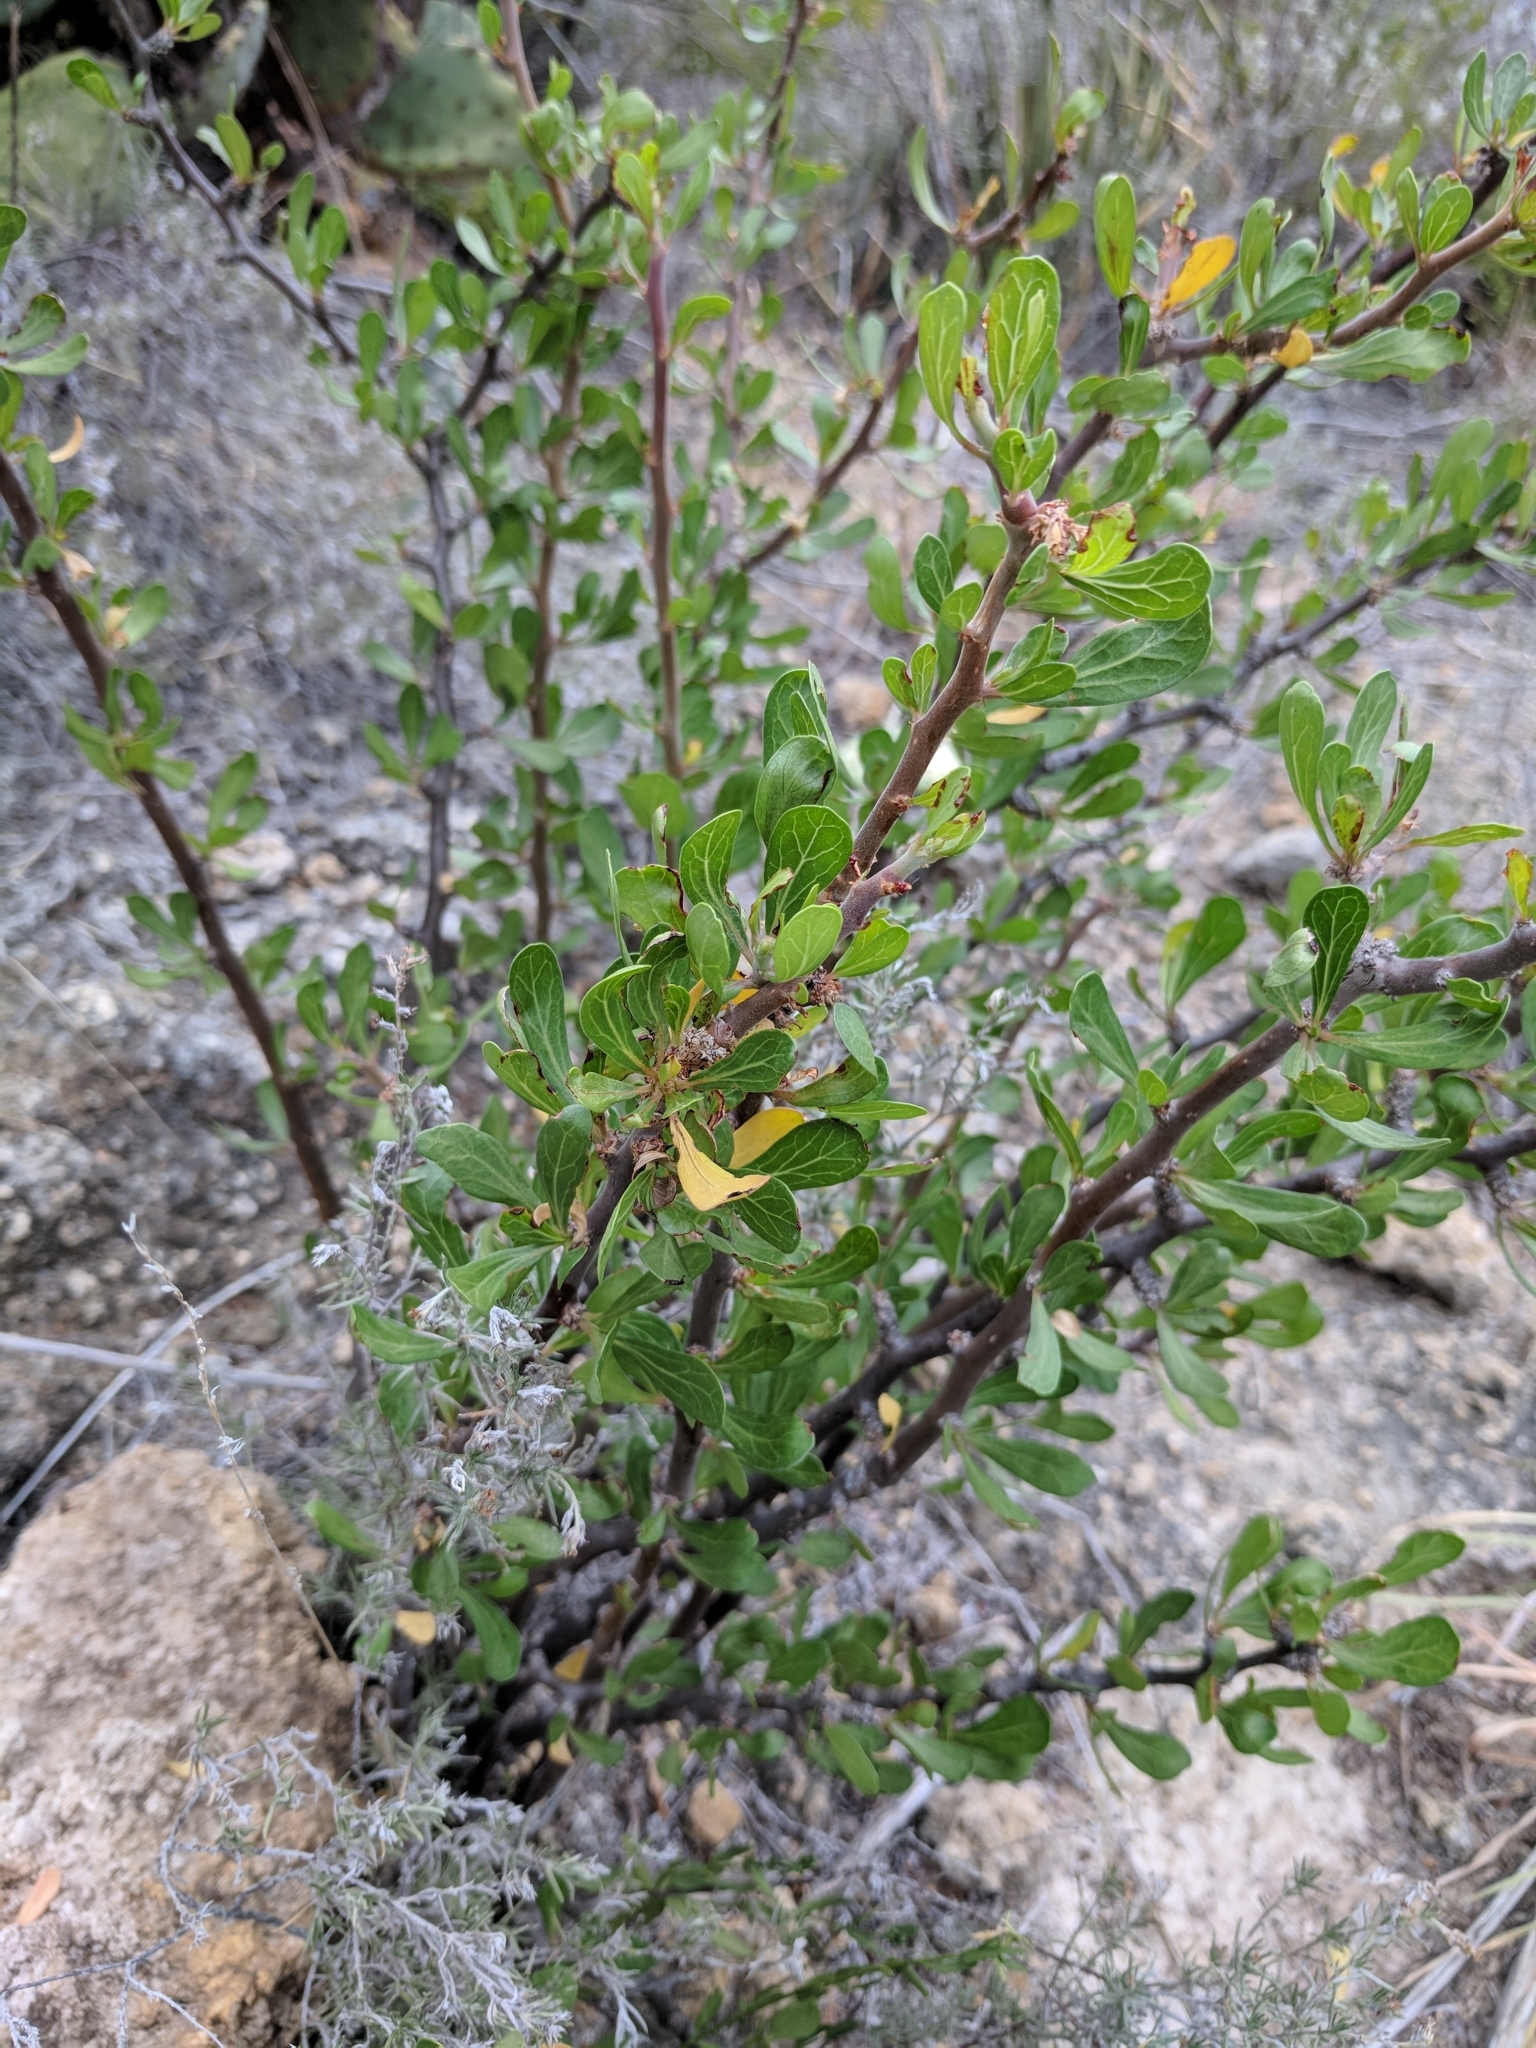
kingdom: Plantae
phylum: Tracheophyta
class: Magnoliopsida
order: Malpighiales
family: Euphorbiaceae
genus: Jatropha
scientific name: Jatropha dioica
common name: Leatherstem
